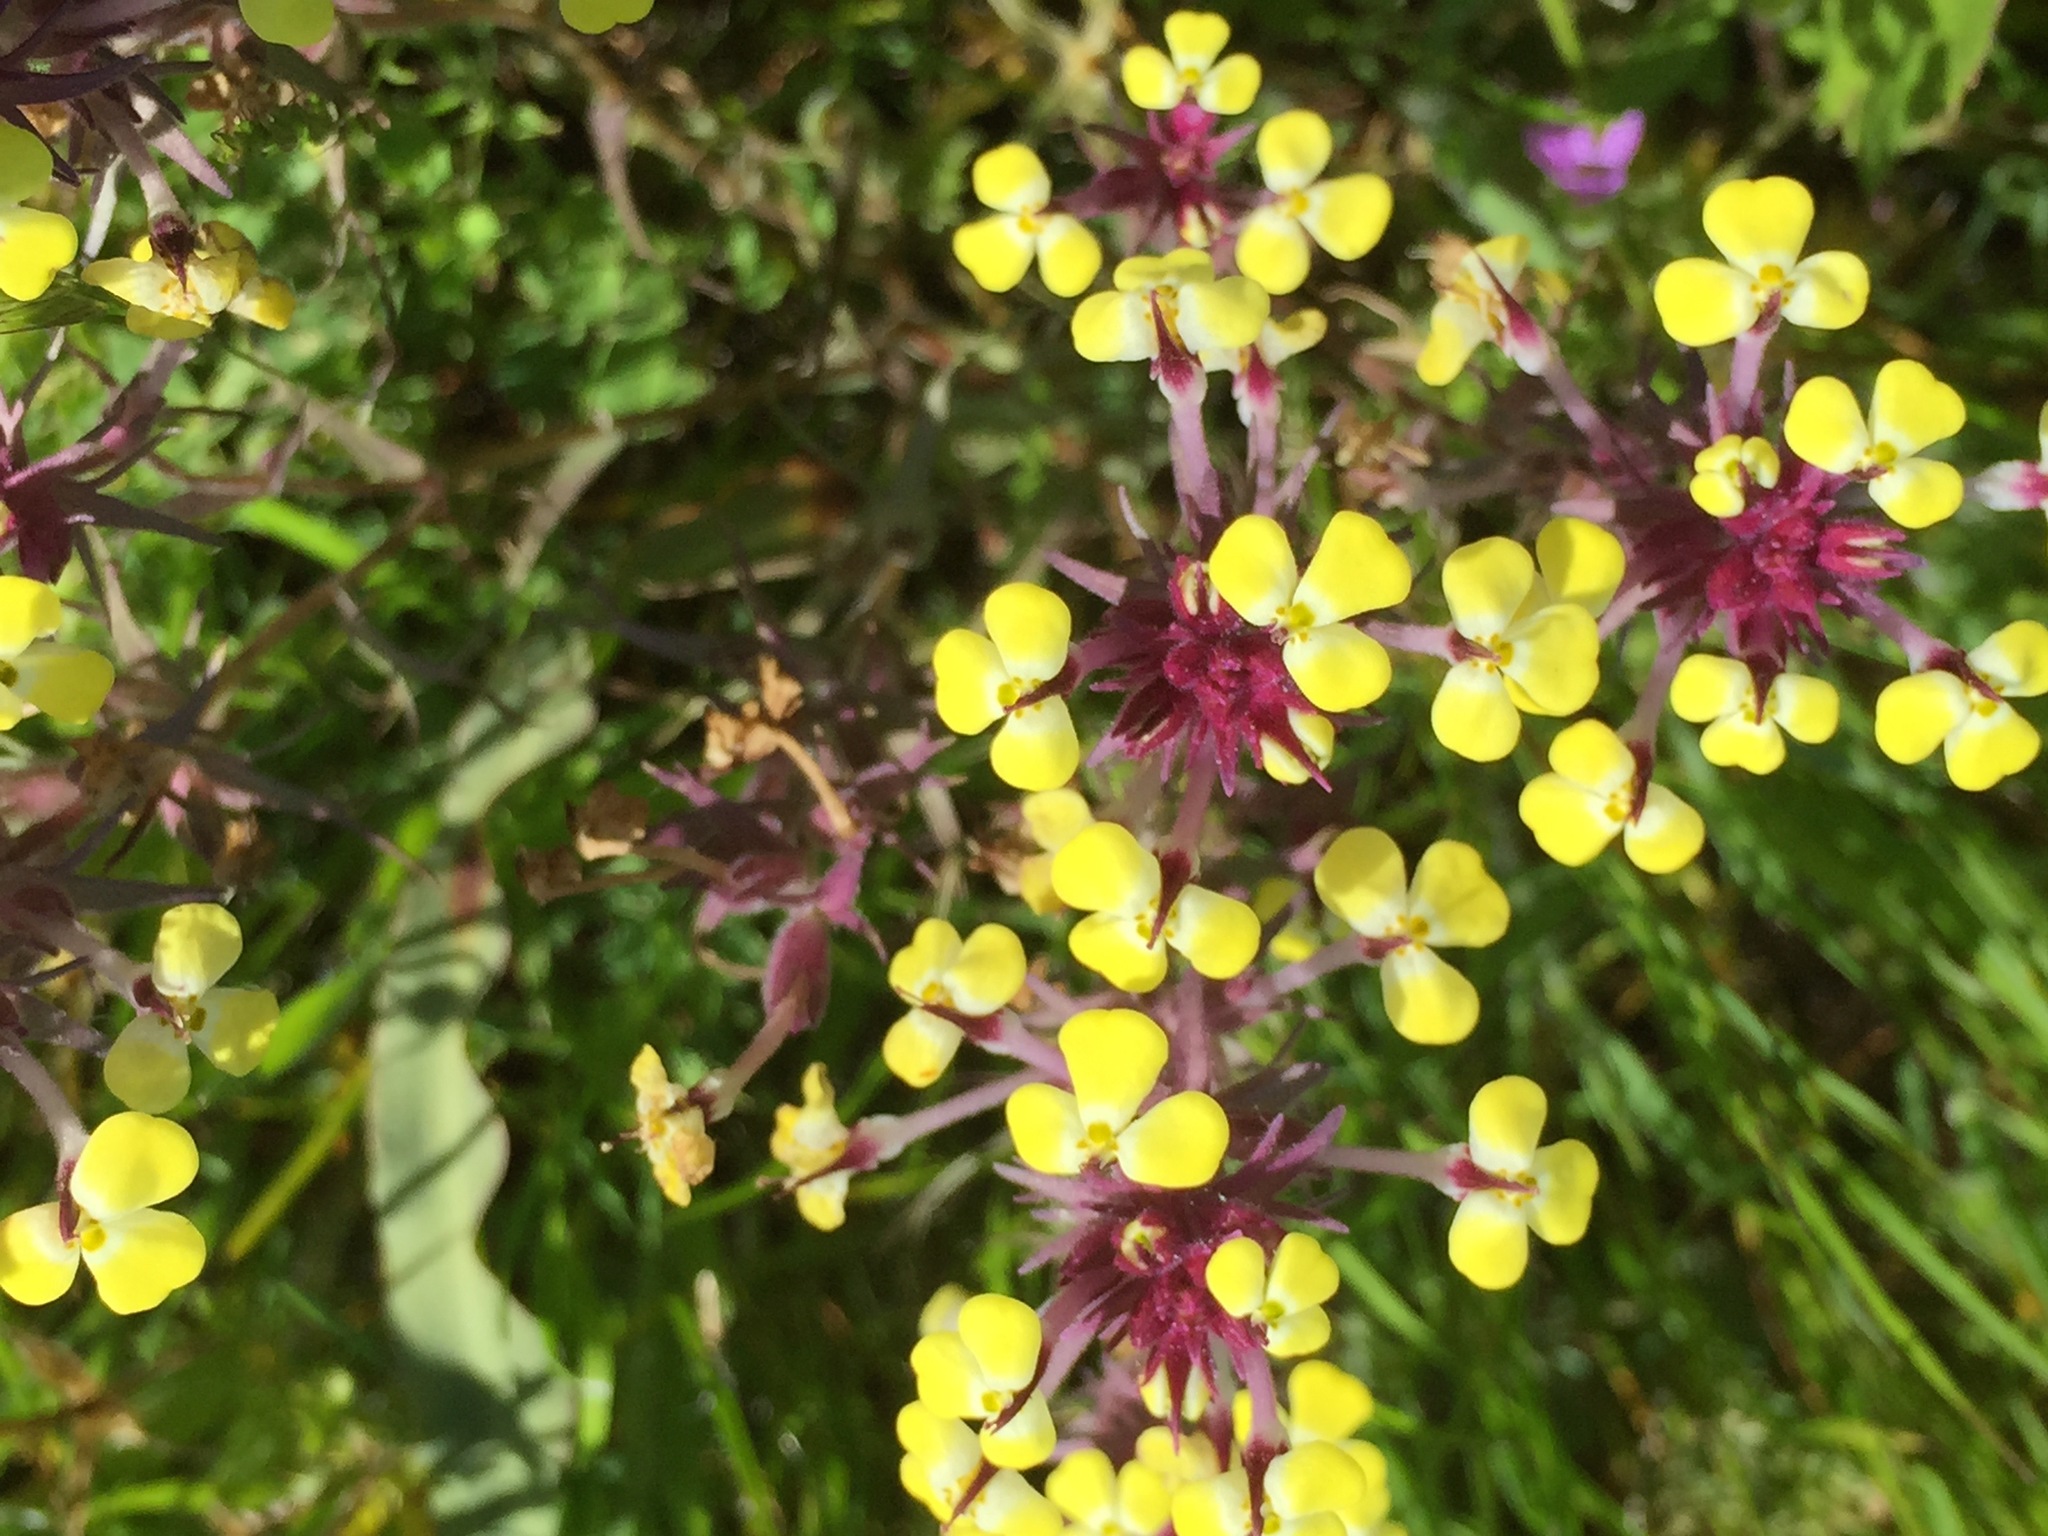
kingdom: Plantae
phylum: Tracheophyta
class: Magnoliopsida
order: Lamiales
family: Orobanchaceae
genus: Triphysaria
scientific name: Triphysaria eriantha
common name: Johnny-tuck
